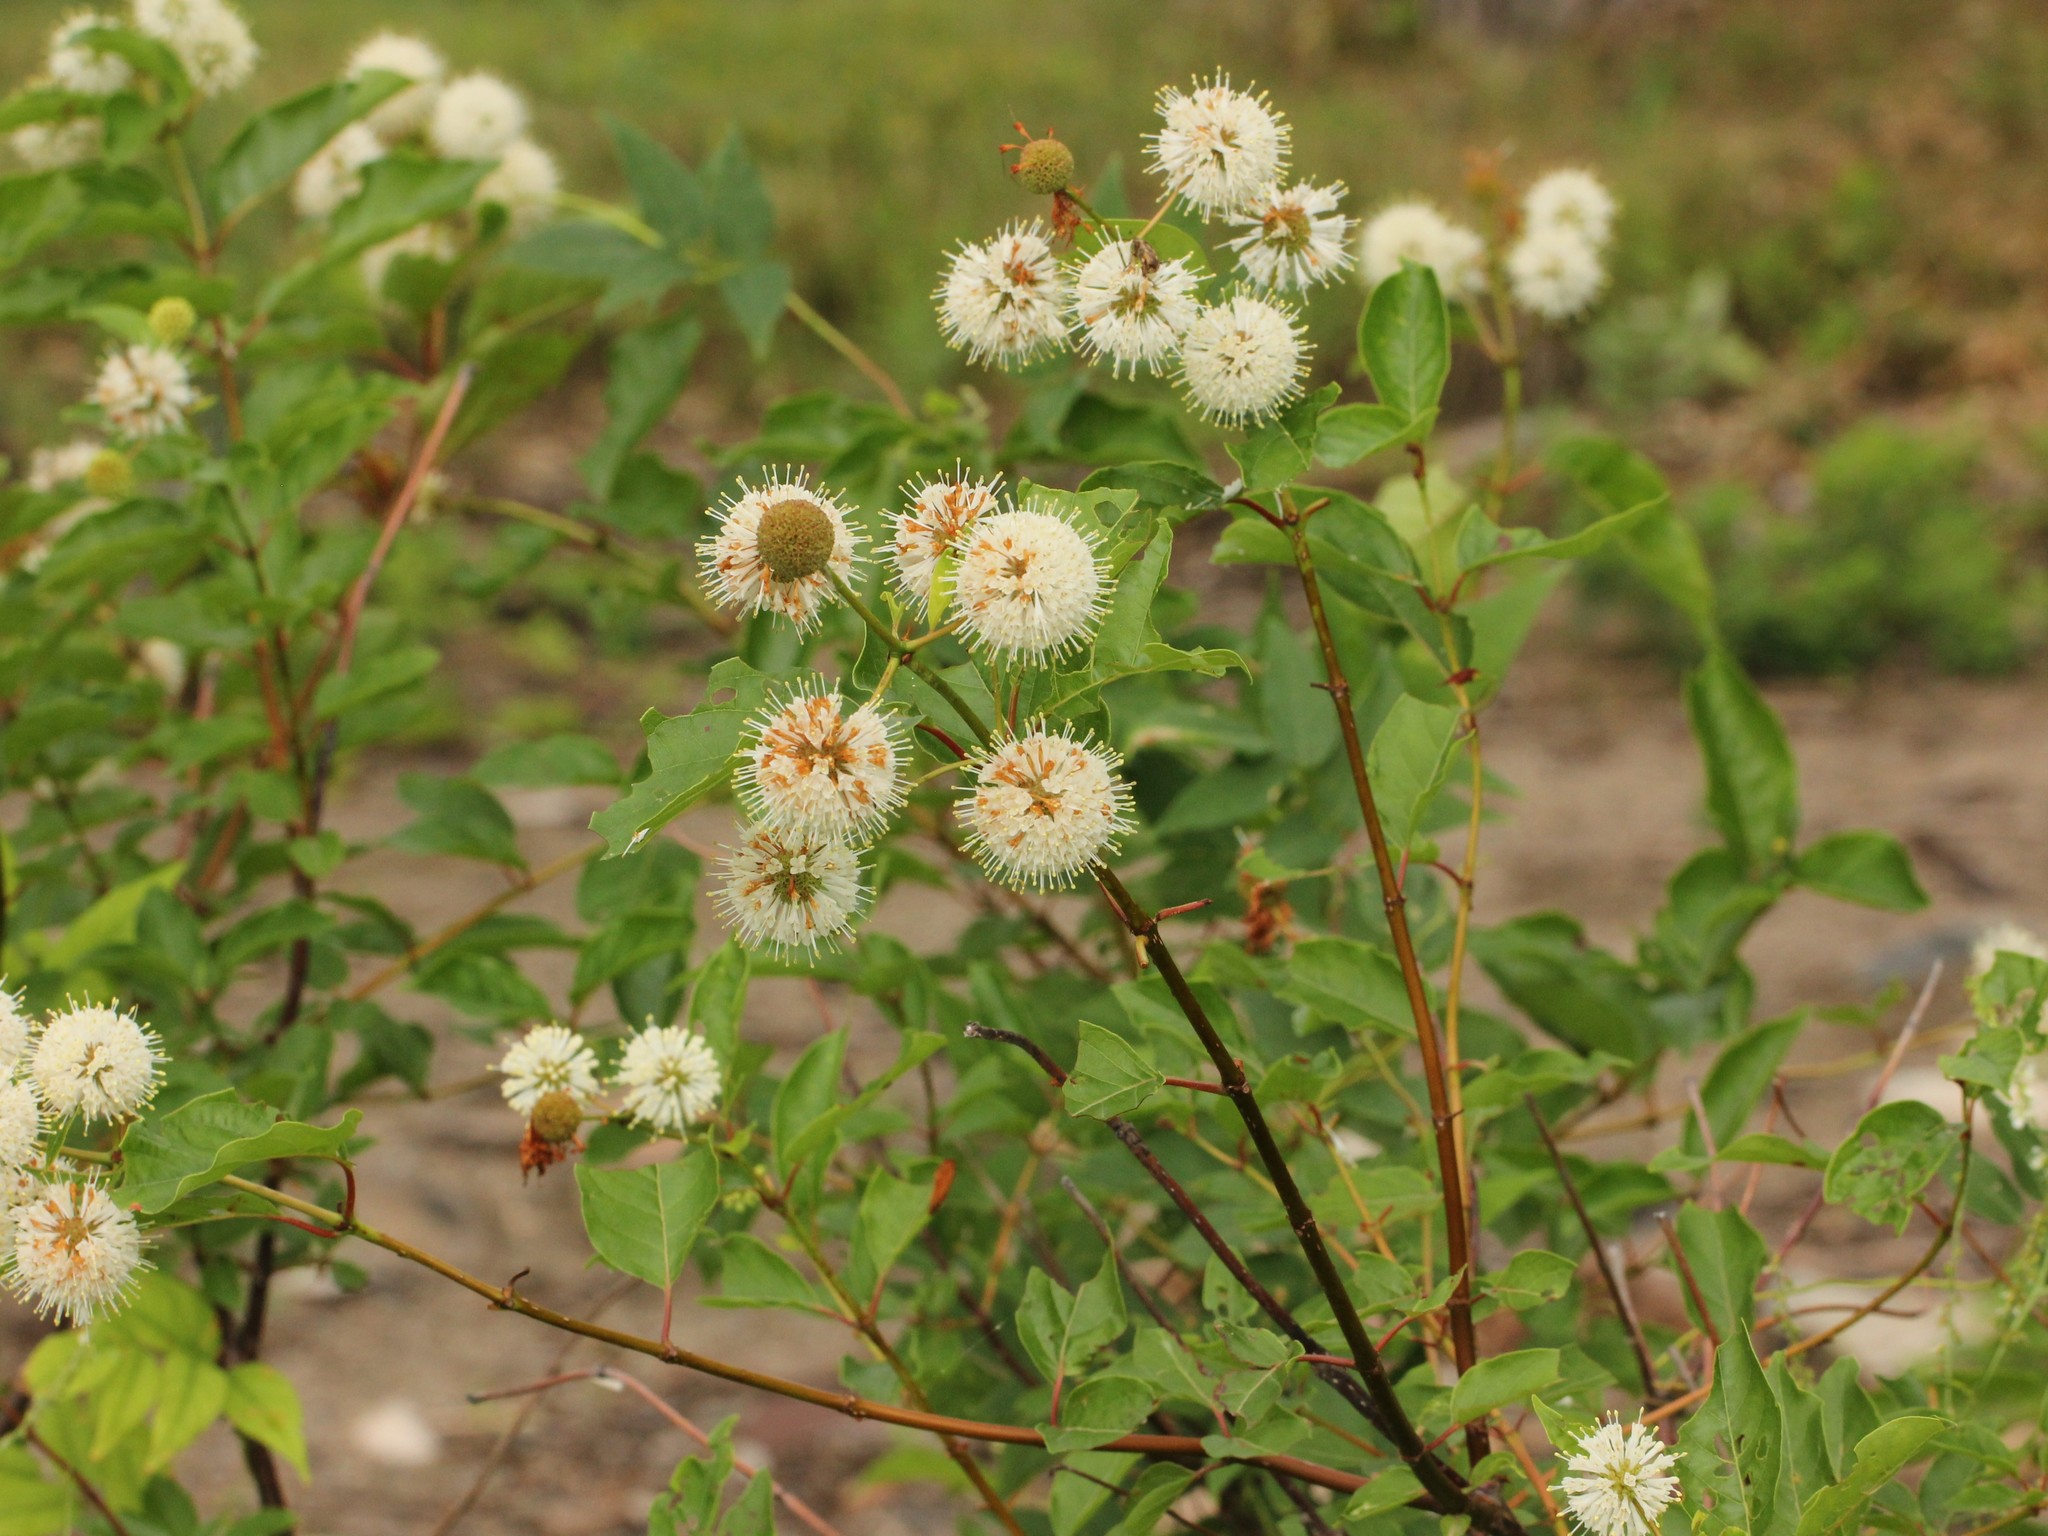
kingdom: Plantae
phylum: Tracheophyta
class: Magnoliopsida
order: Gentianales
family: Rubiaceae
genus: Cephalanthus
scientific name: Cephalanthus occidentalis
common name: Button-willow
